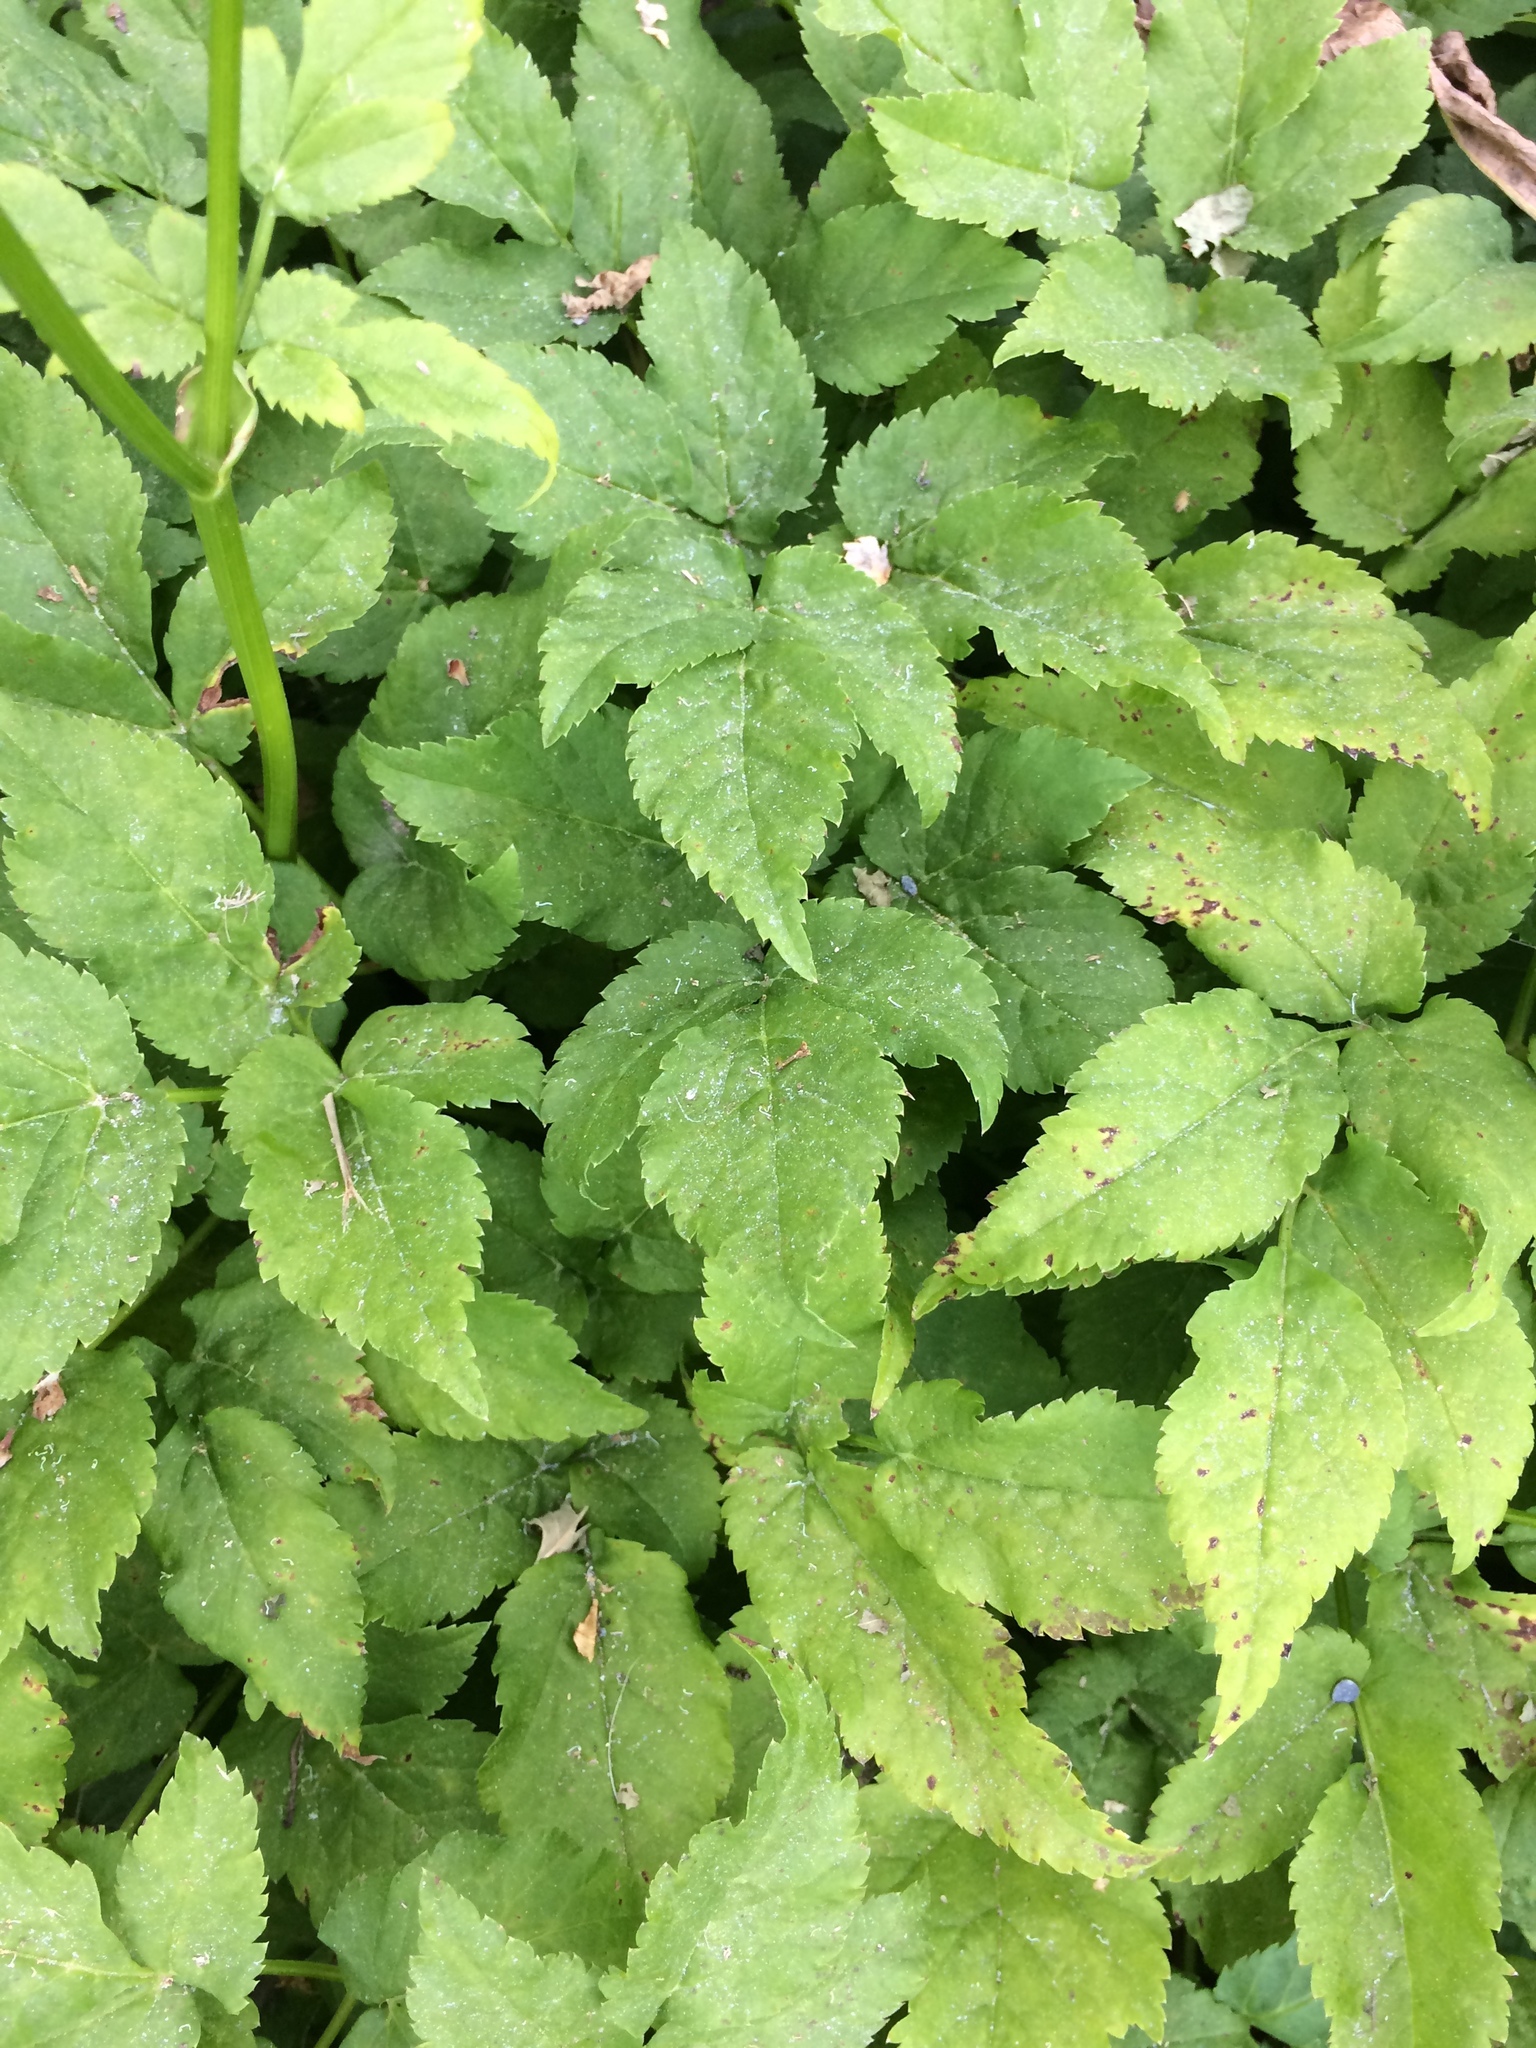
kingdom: Plantae
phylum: Tracheophyta
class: Magnoliopsida
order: Apiales
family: Apiaceae
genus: Aegopodium
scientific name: Aegopodium podagraria
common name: Ground-elder
